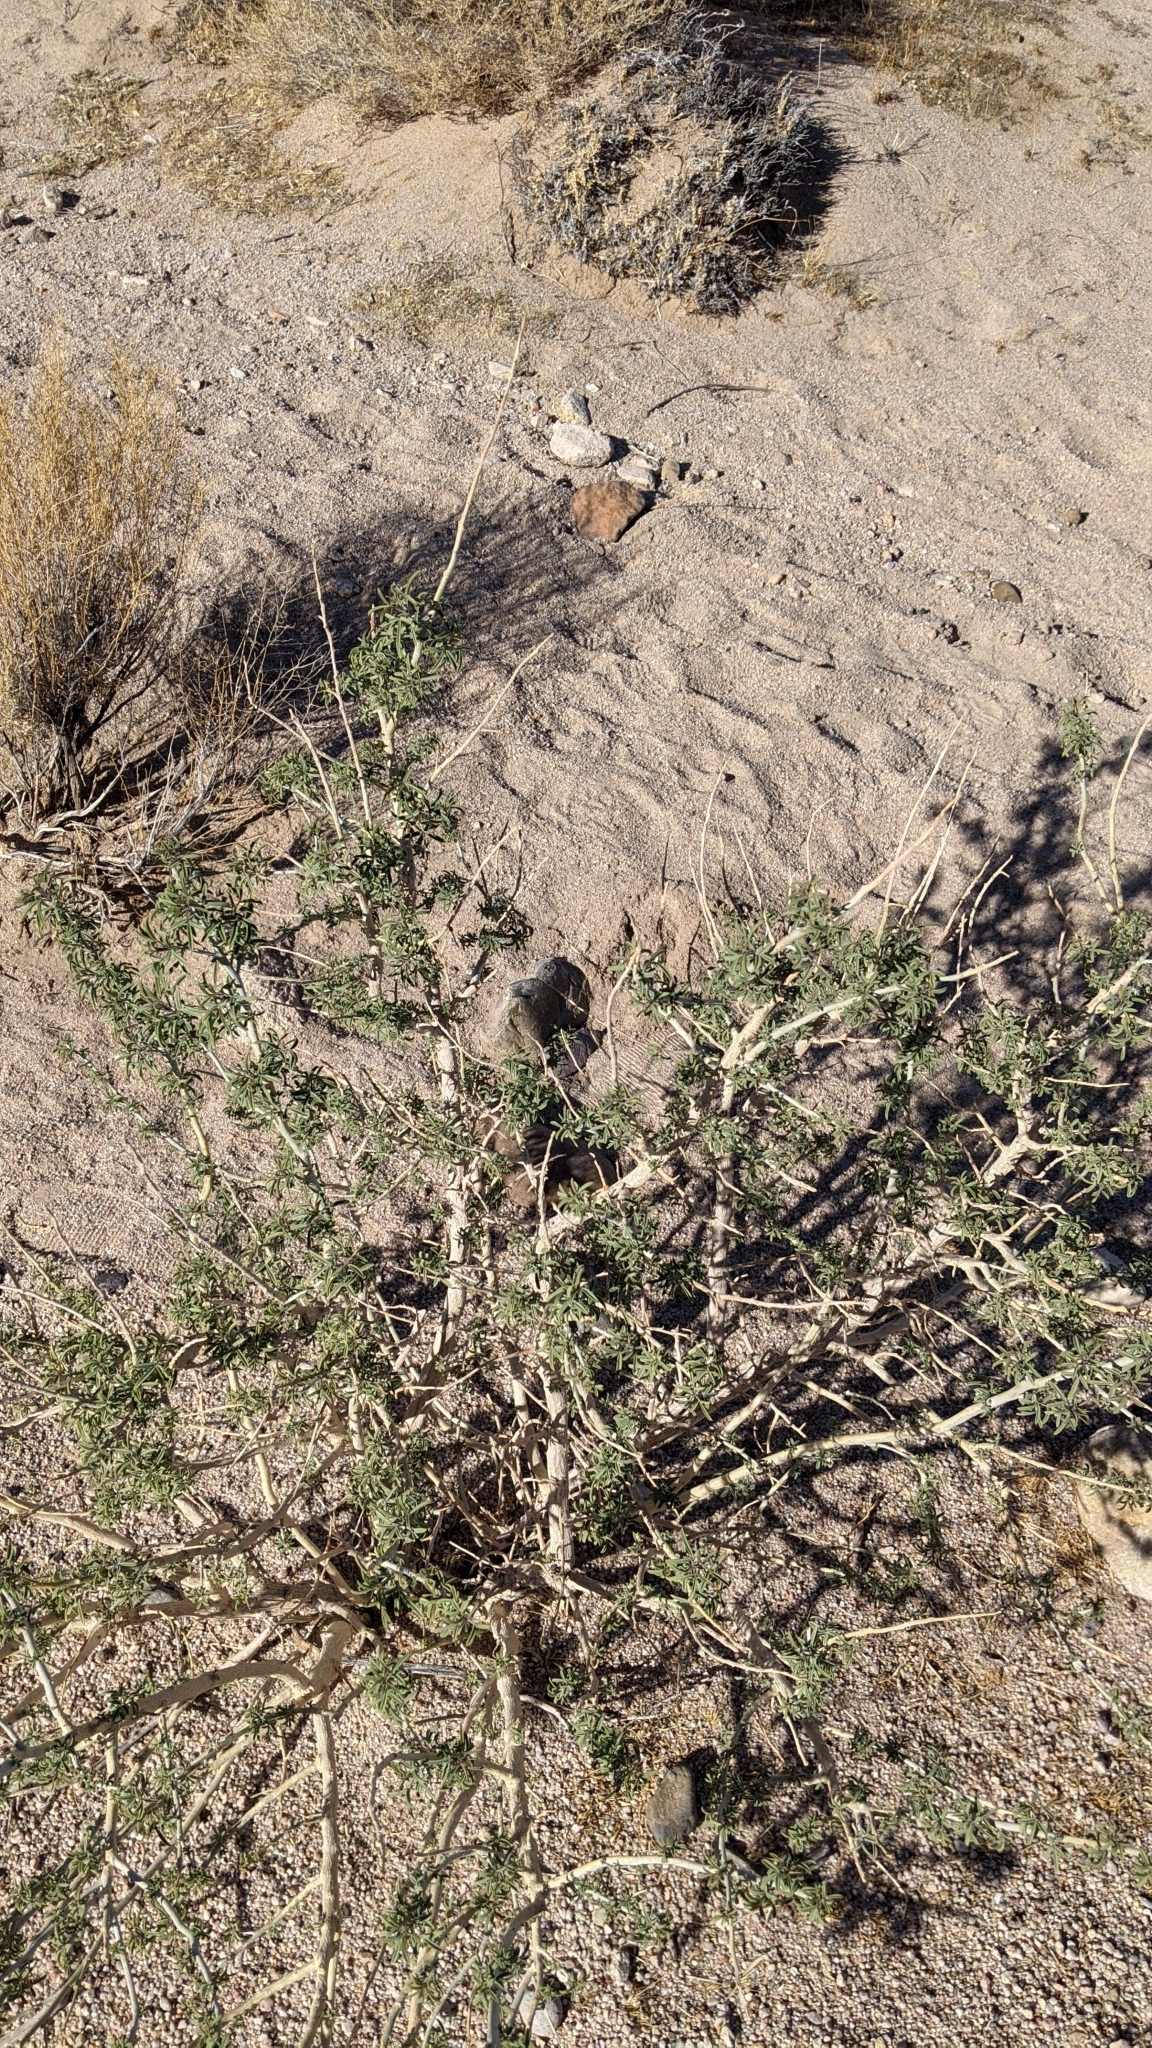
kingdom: Plantae
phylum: Tracheophyta
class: Magnoliopsida
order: Brassicales
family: Cleomaceae
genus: Cleomella
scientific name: Cleomella arborea
